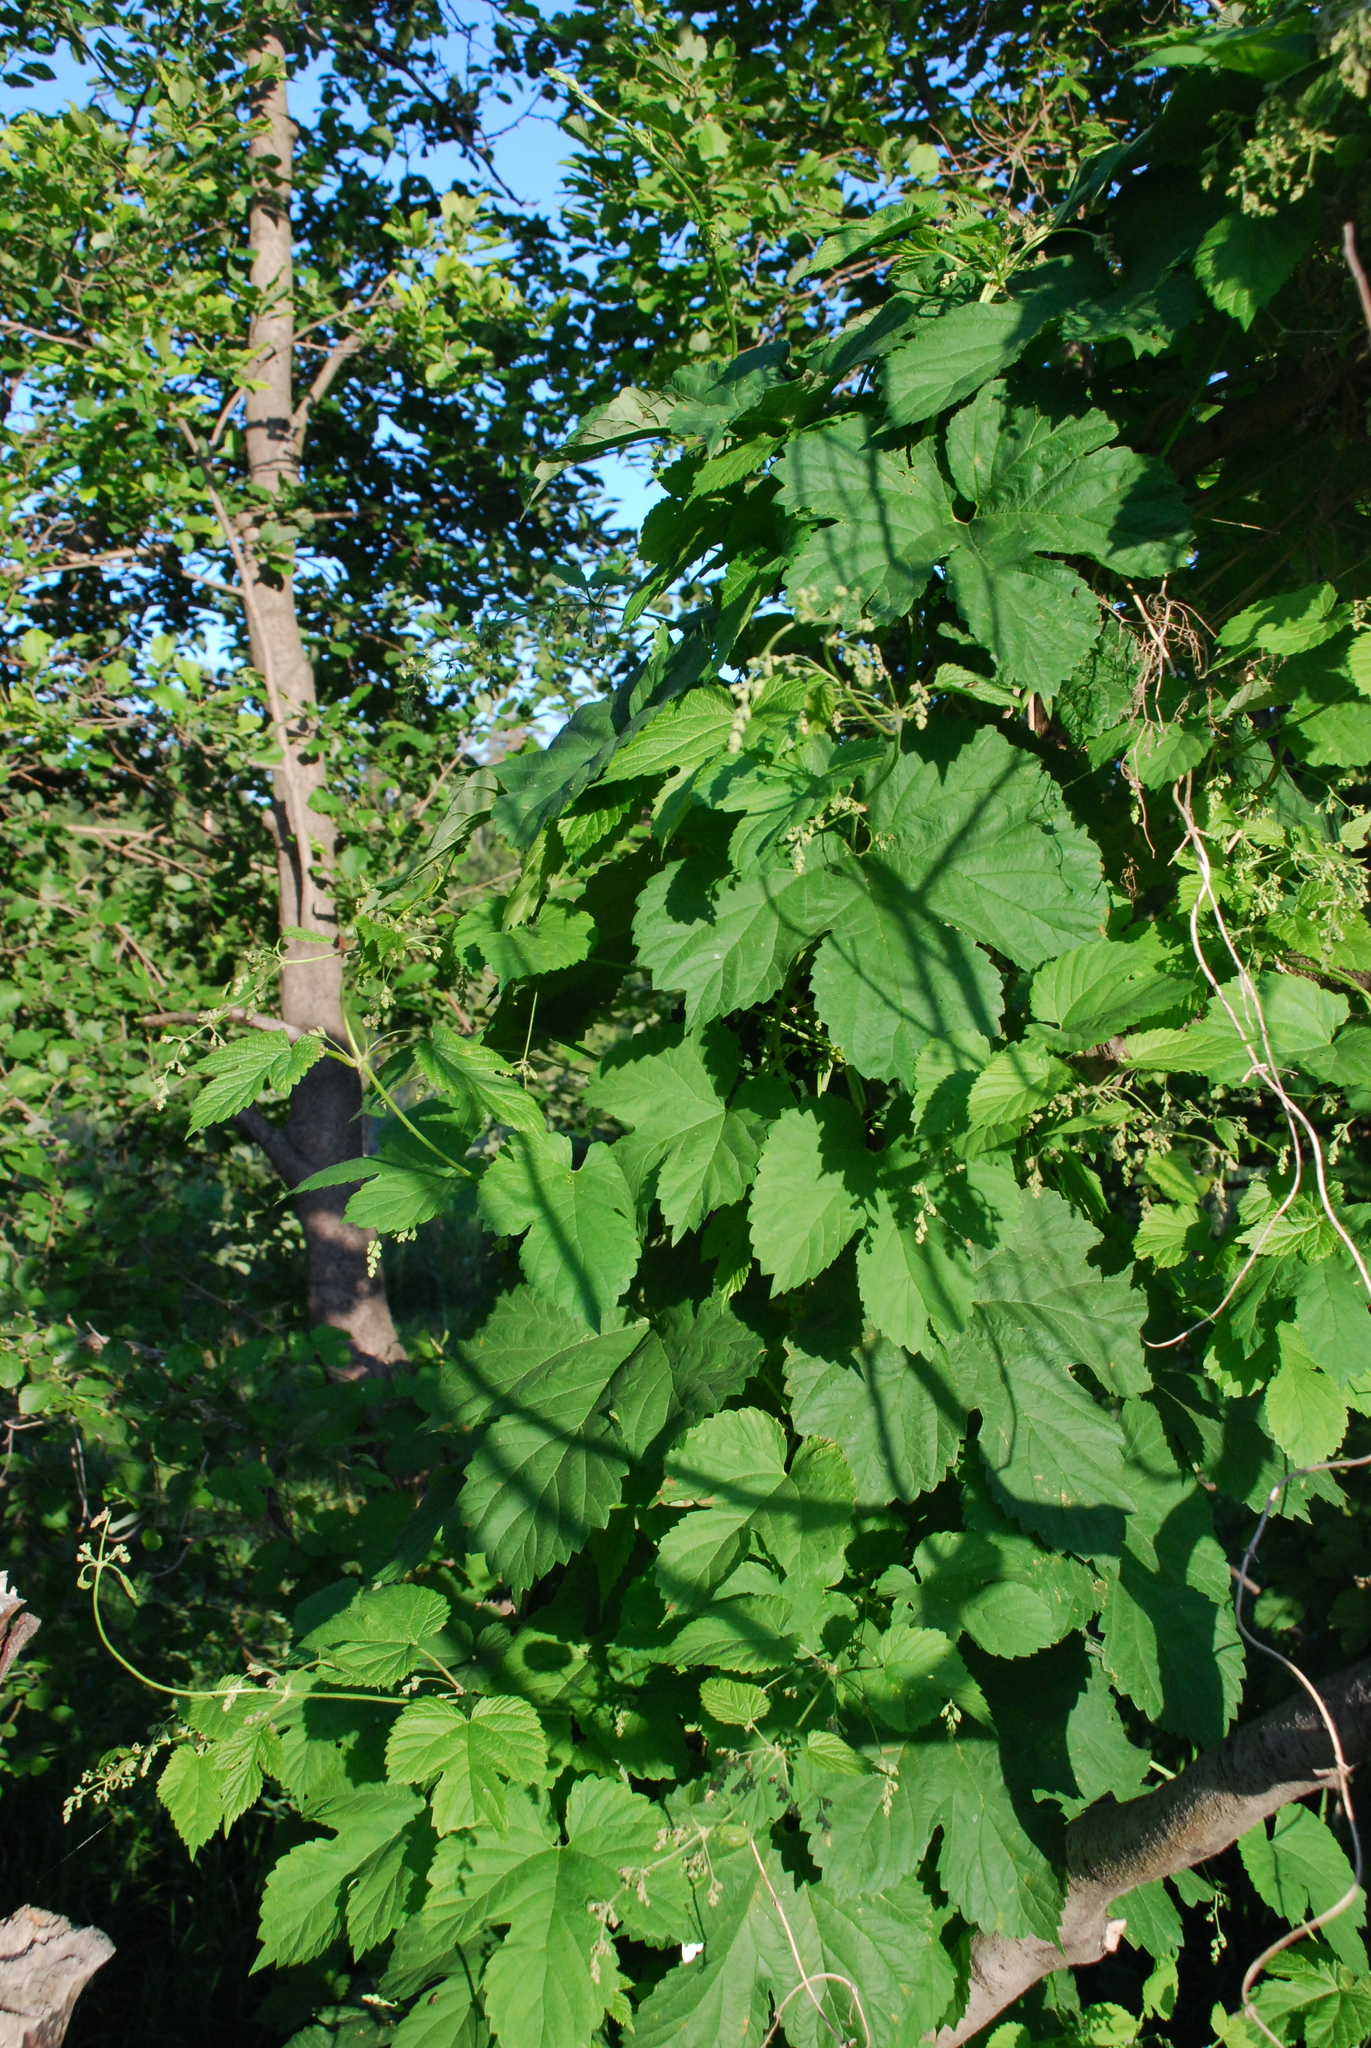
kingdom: Plantae
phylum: Tracheophyta
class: Magnoliopsida
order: Rosales
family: Cannabaceae
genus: Humulus
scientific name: Humulus lupulus
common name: Hop
